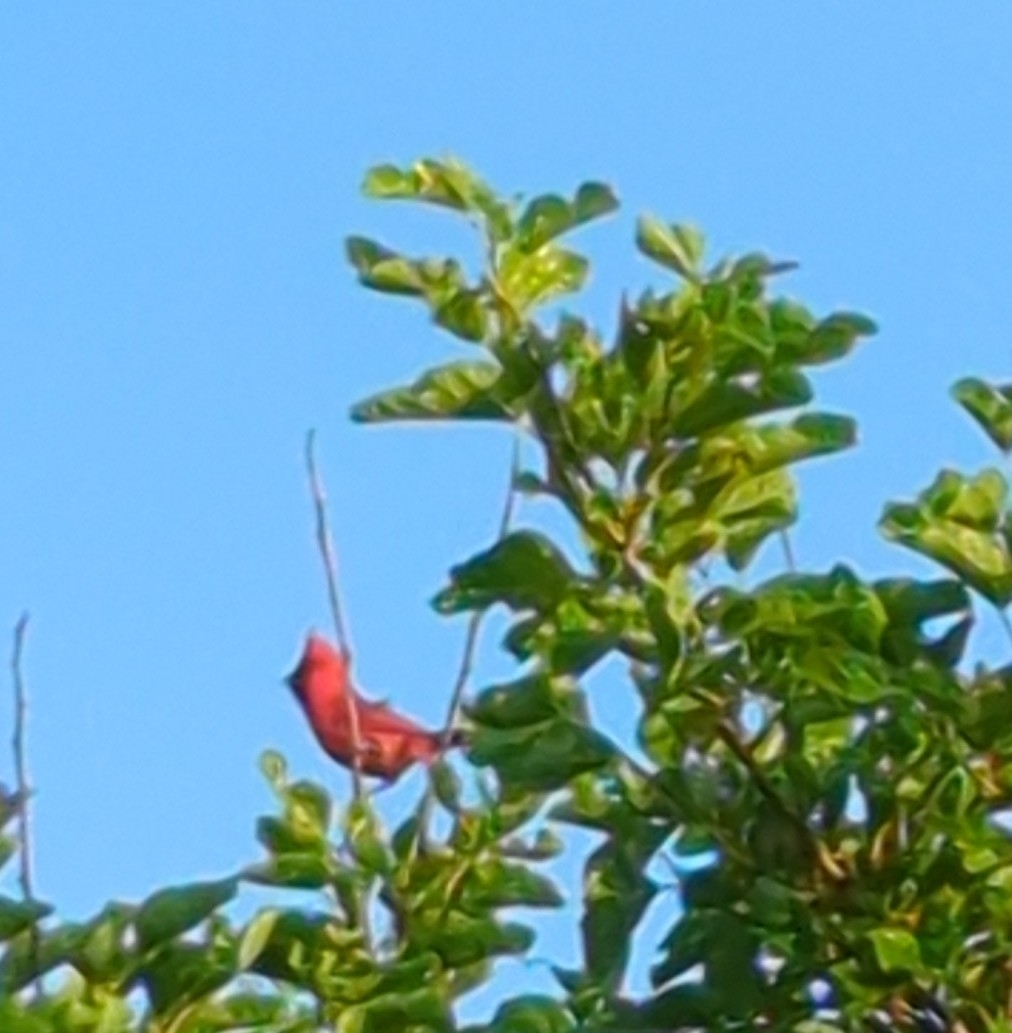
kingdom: Animalia
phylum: Chordata
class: Aves
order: Passeriformes
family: Cardinalidae
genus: Cardinalis
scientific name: Cardinalis cardinalis
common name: Northern cardinal
